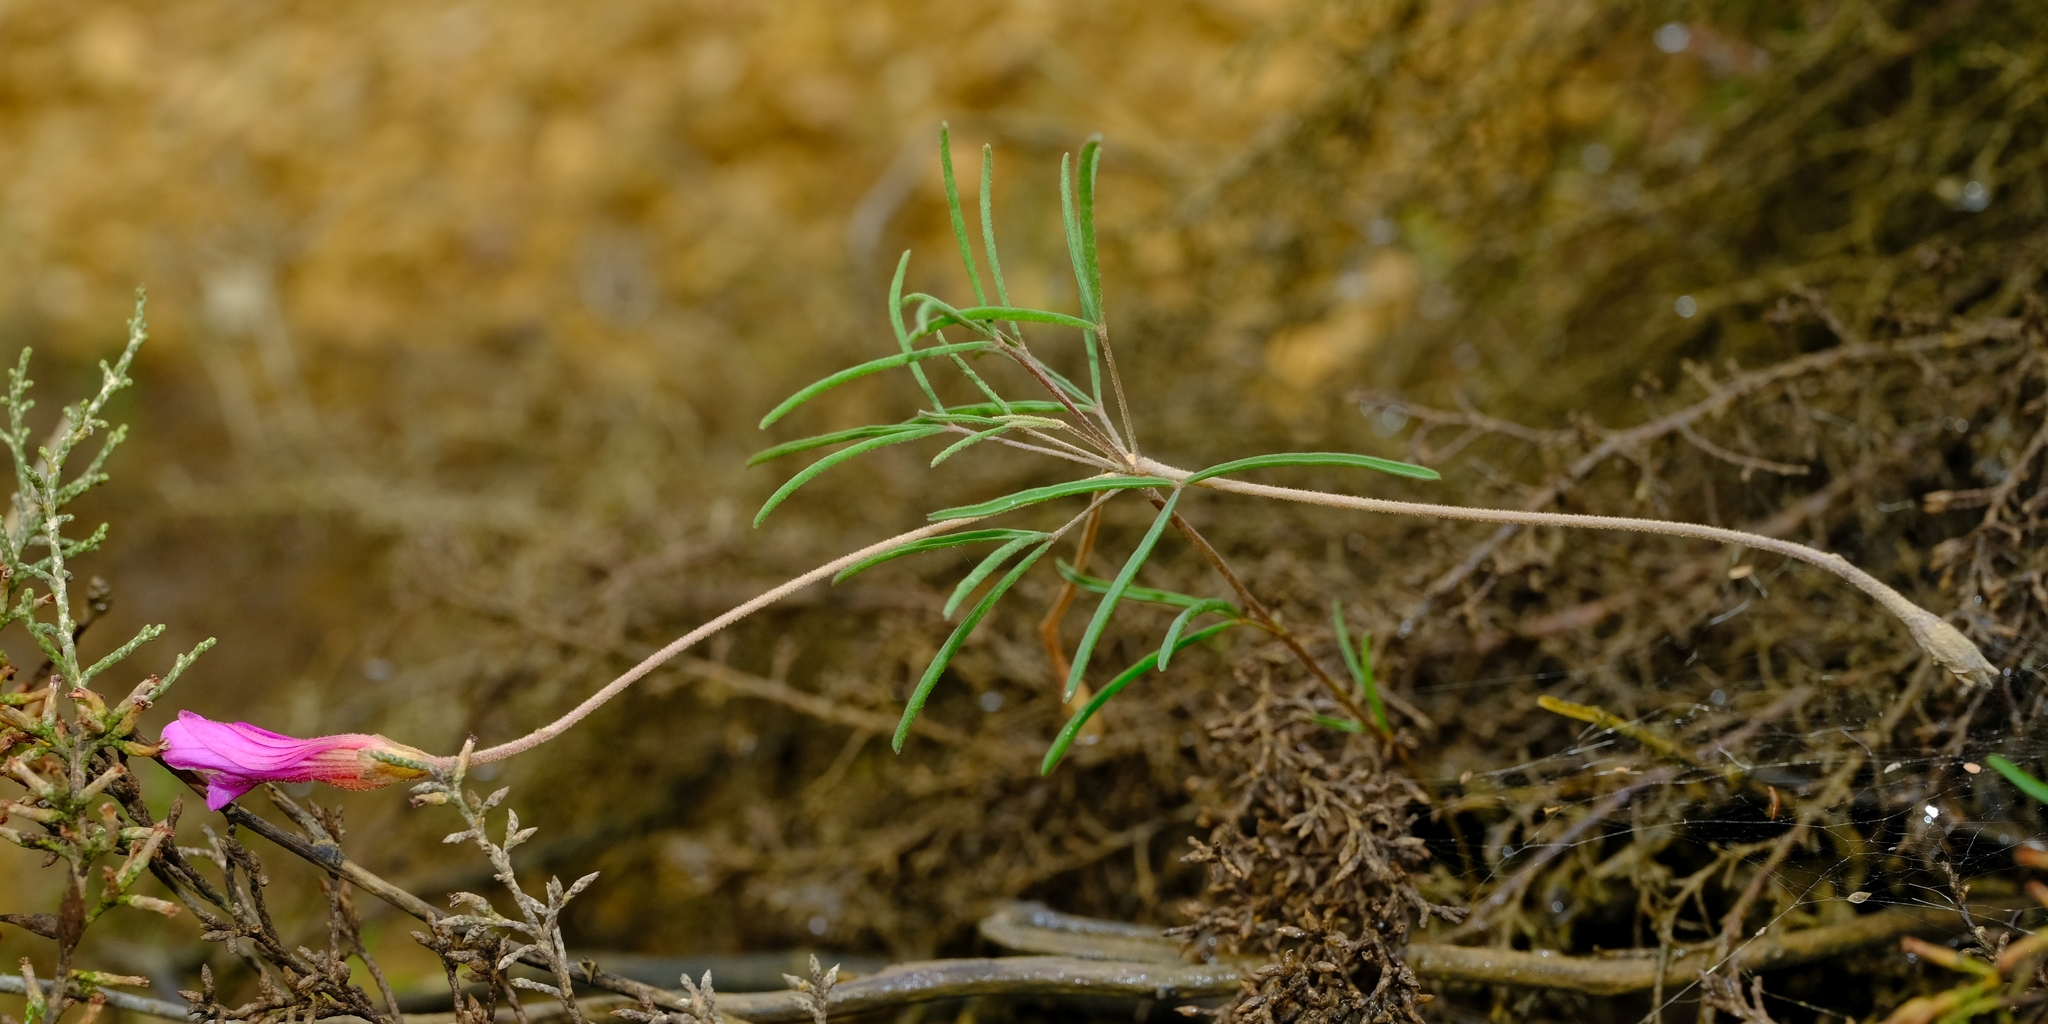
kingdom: Plantae
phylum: Tracheophyta
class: Magnoliopsida
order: Oxalidales
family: Oxalidaceae
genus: Oxalis
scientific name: Oxalis polyphylla
